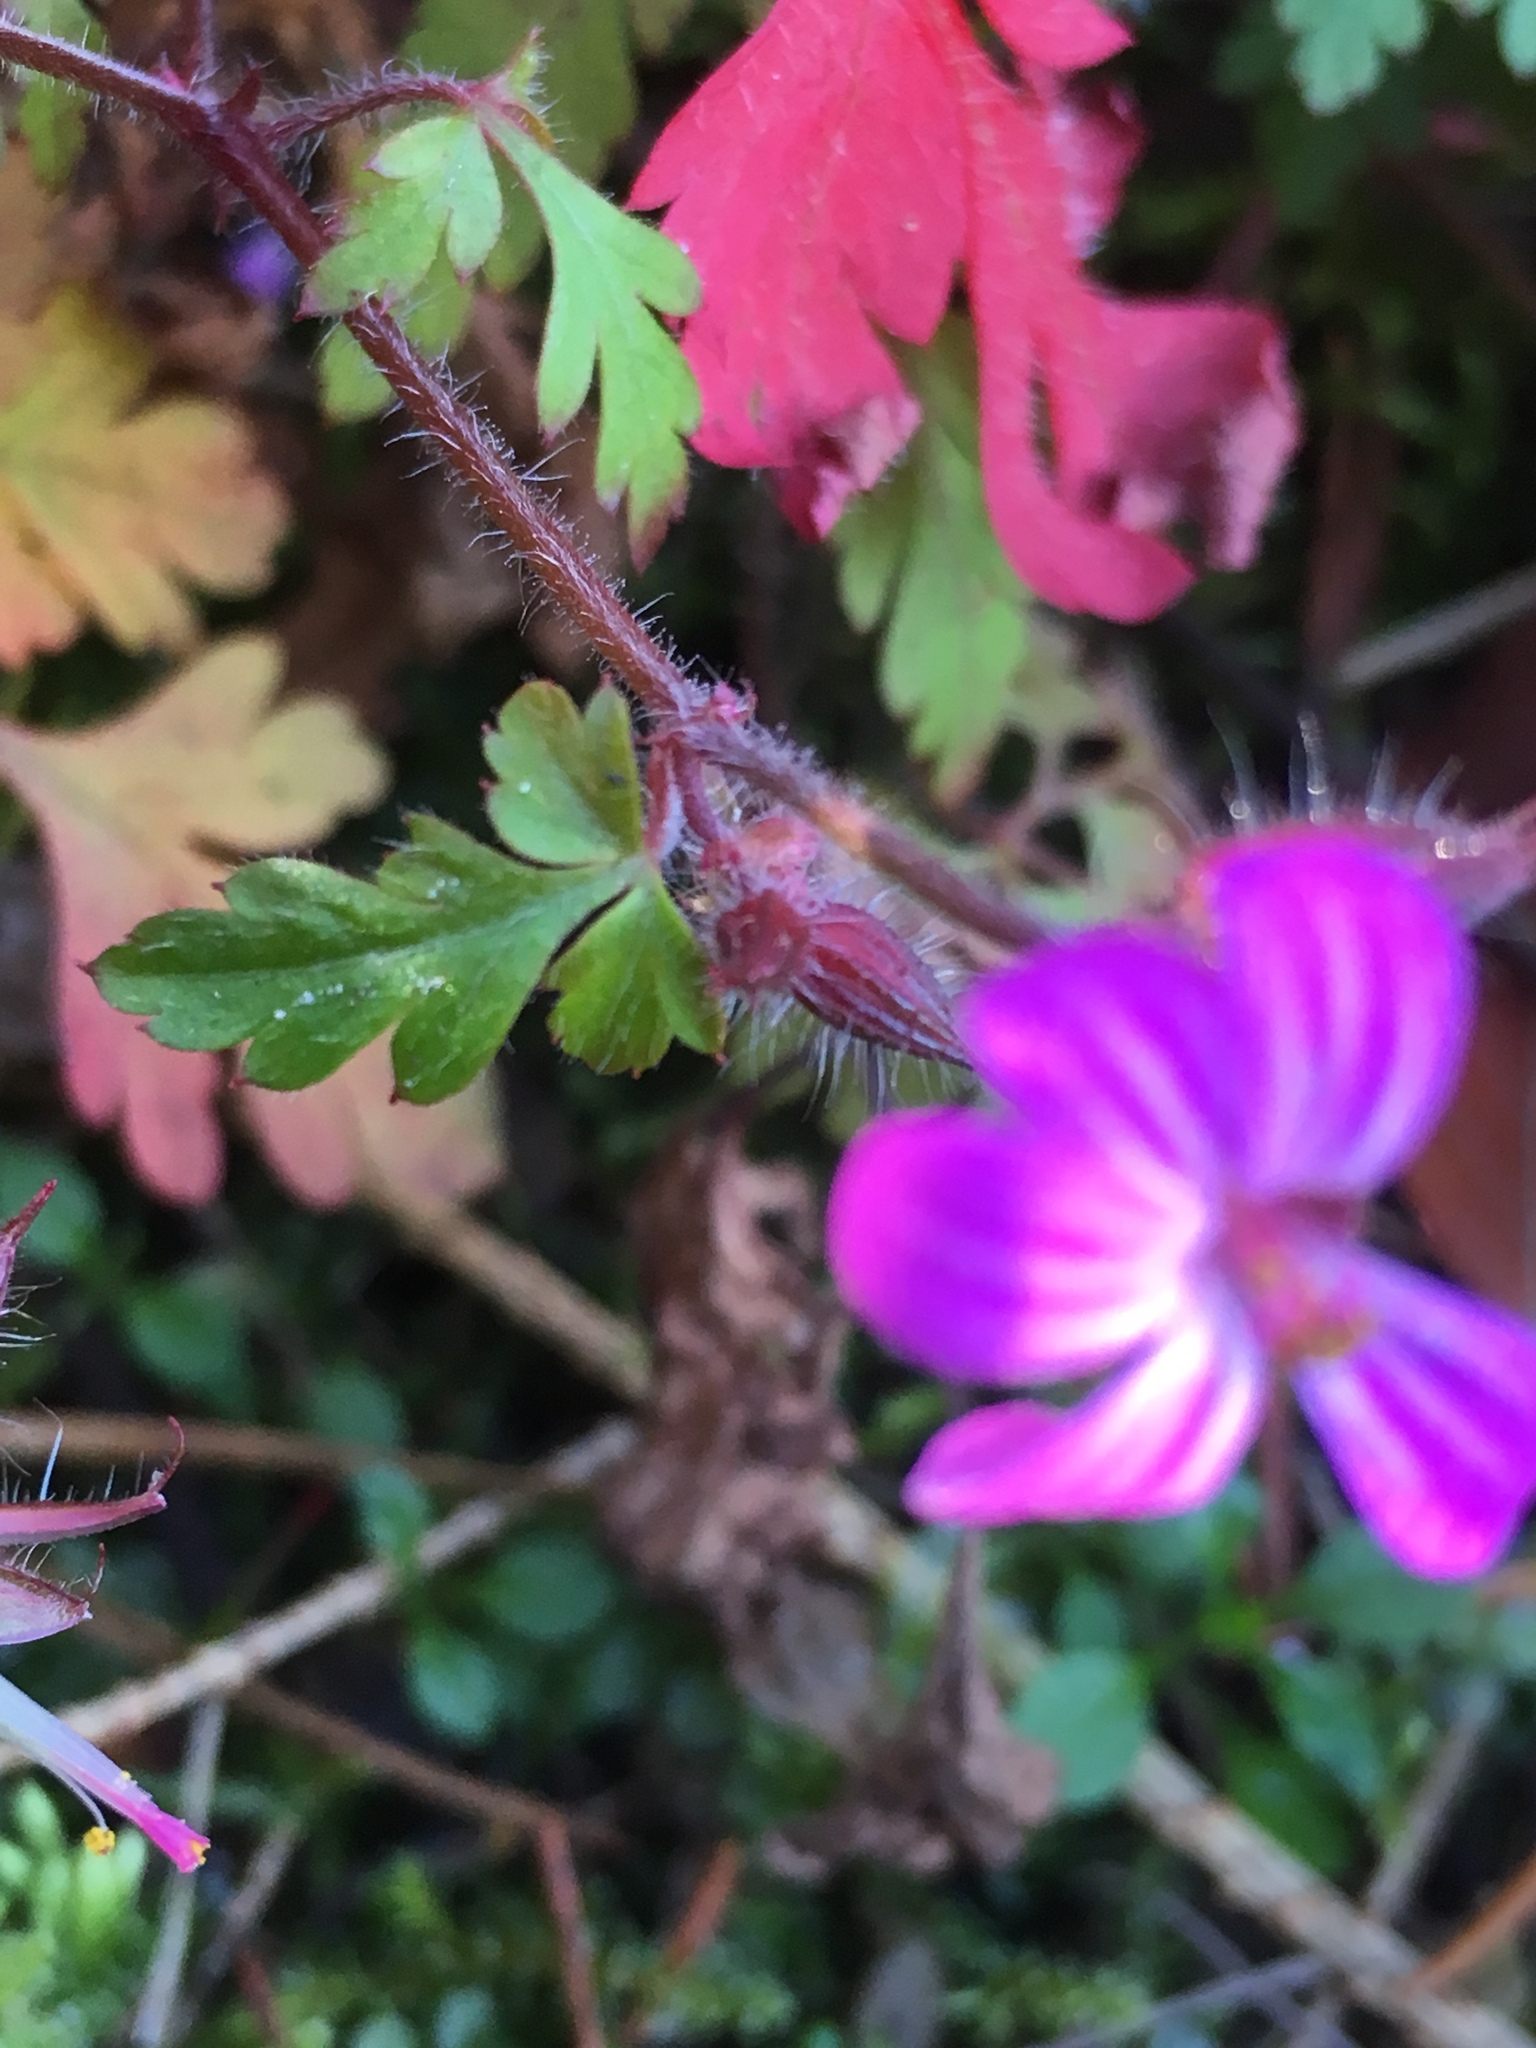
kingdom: Plantae
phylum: Tracheophyta
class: Magnoliopsida
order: Geraniales
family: Geraniaceae
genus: Geranium
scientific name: Geranium robertianum
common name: Herb-robert
